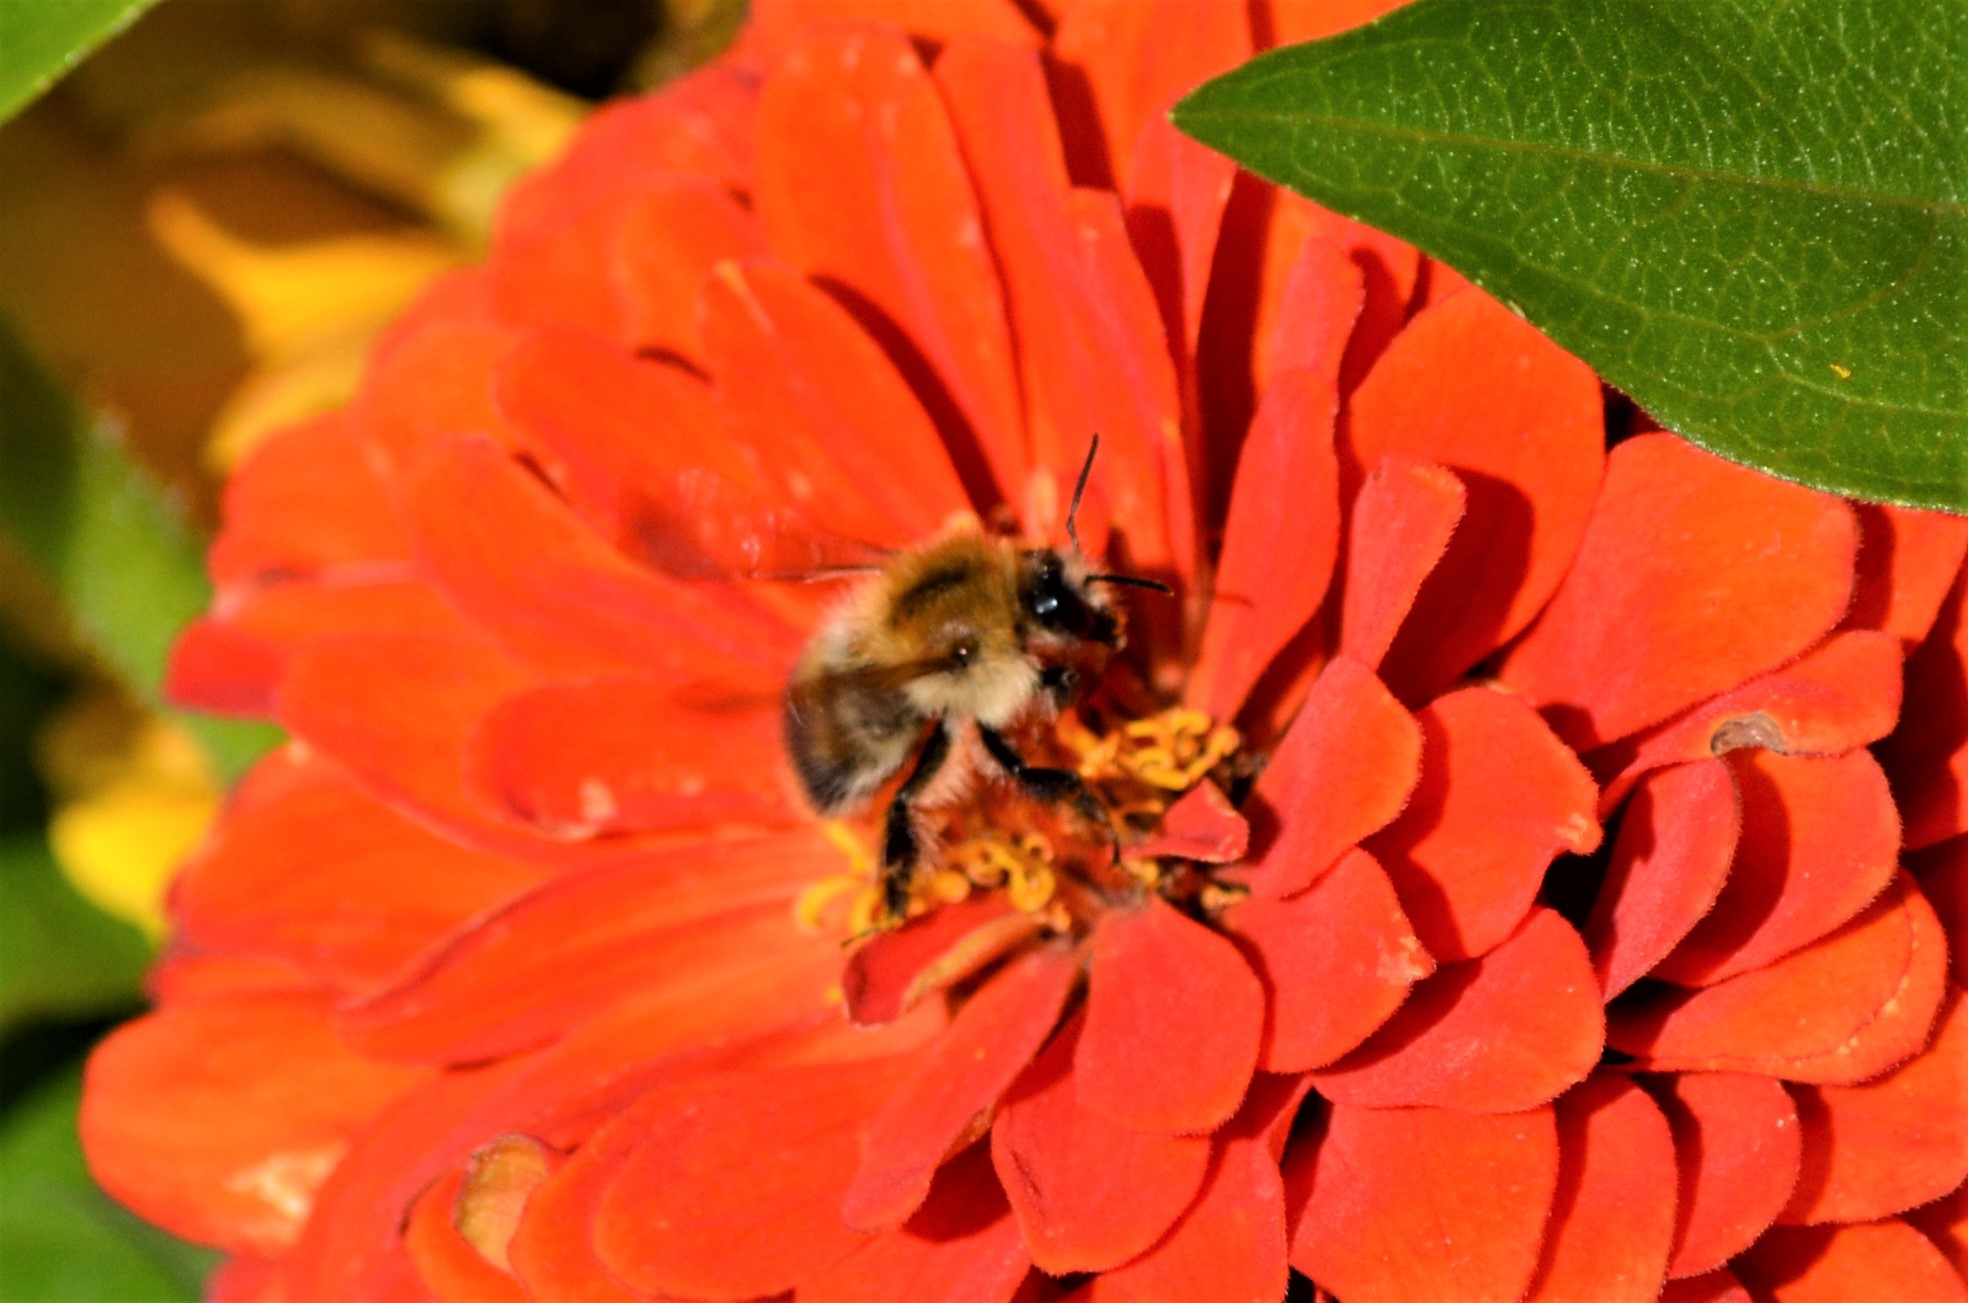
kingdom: Animalia
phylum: Arthropoda
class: Insecta
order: Hymenoptera
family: Apidae
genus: Bombus
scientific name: Bombus pascuorum
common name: Common carder bee
